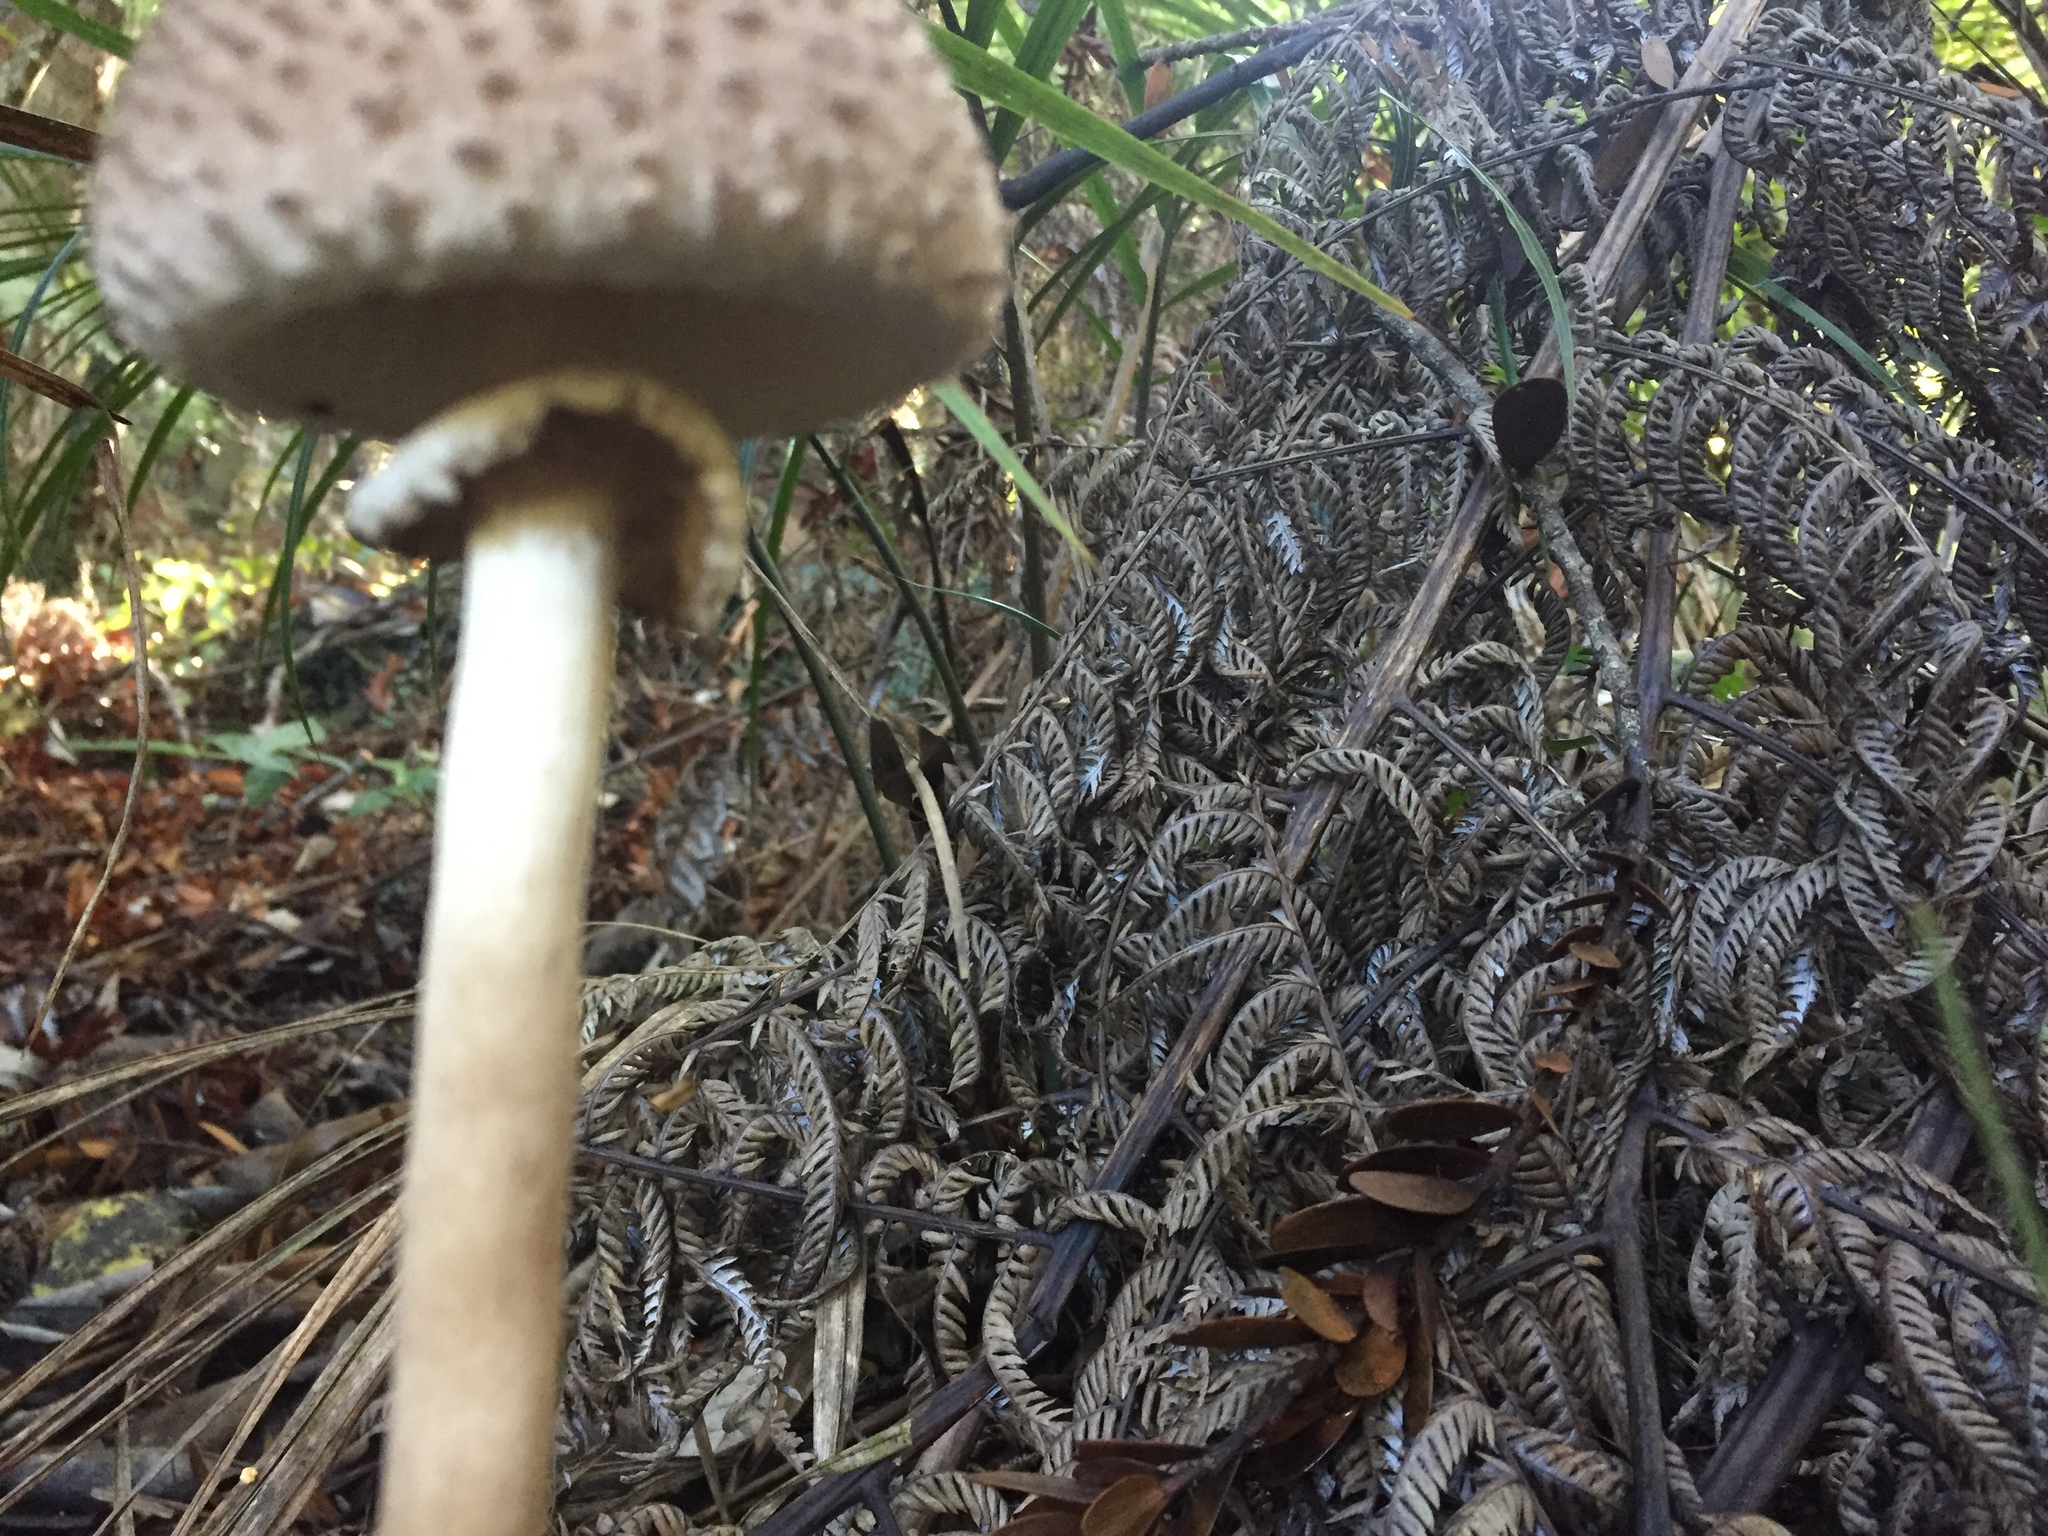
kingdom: Fungi
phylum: Basidiomycota
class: Agaricomycetes
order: Agaricales
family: Agaricaceae
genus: Macrolepiota
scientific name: Macrolepiota clelandii
